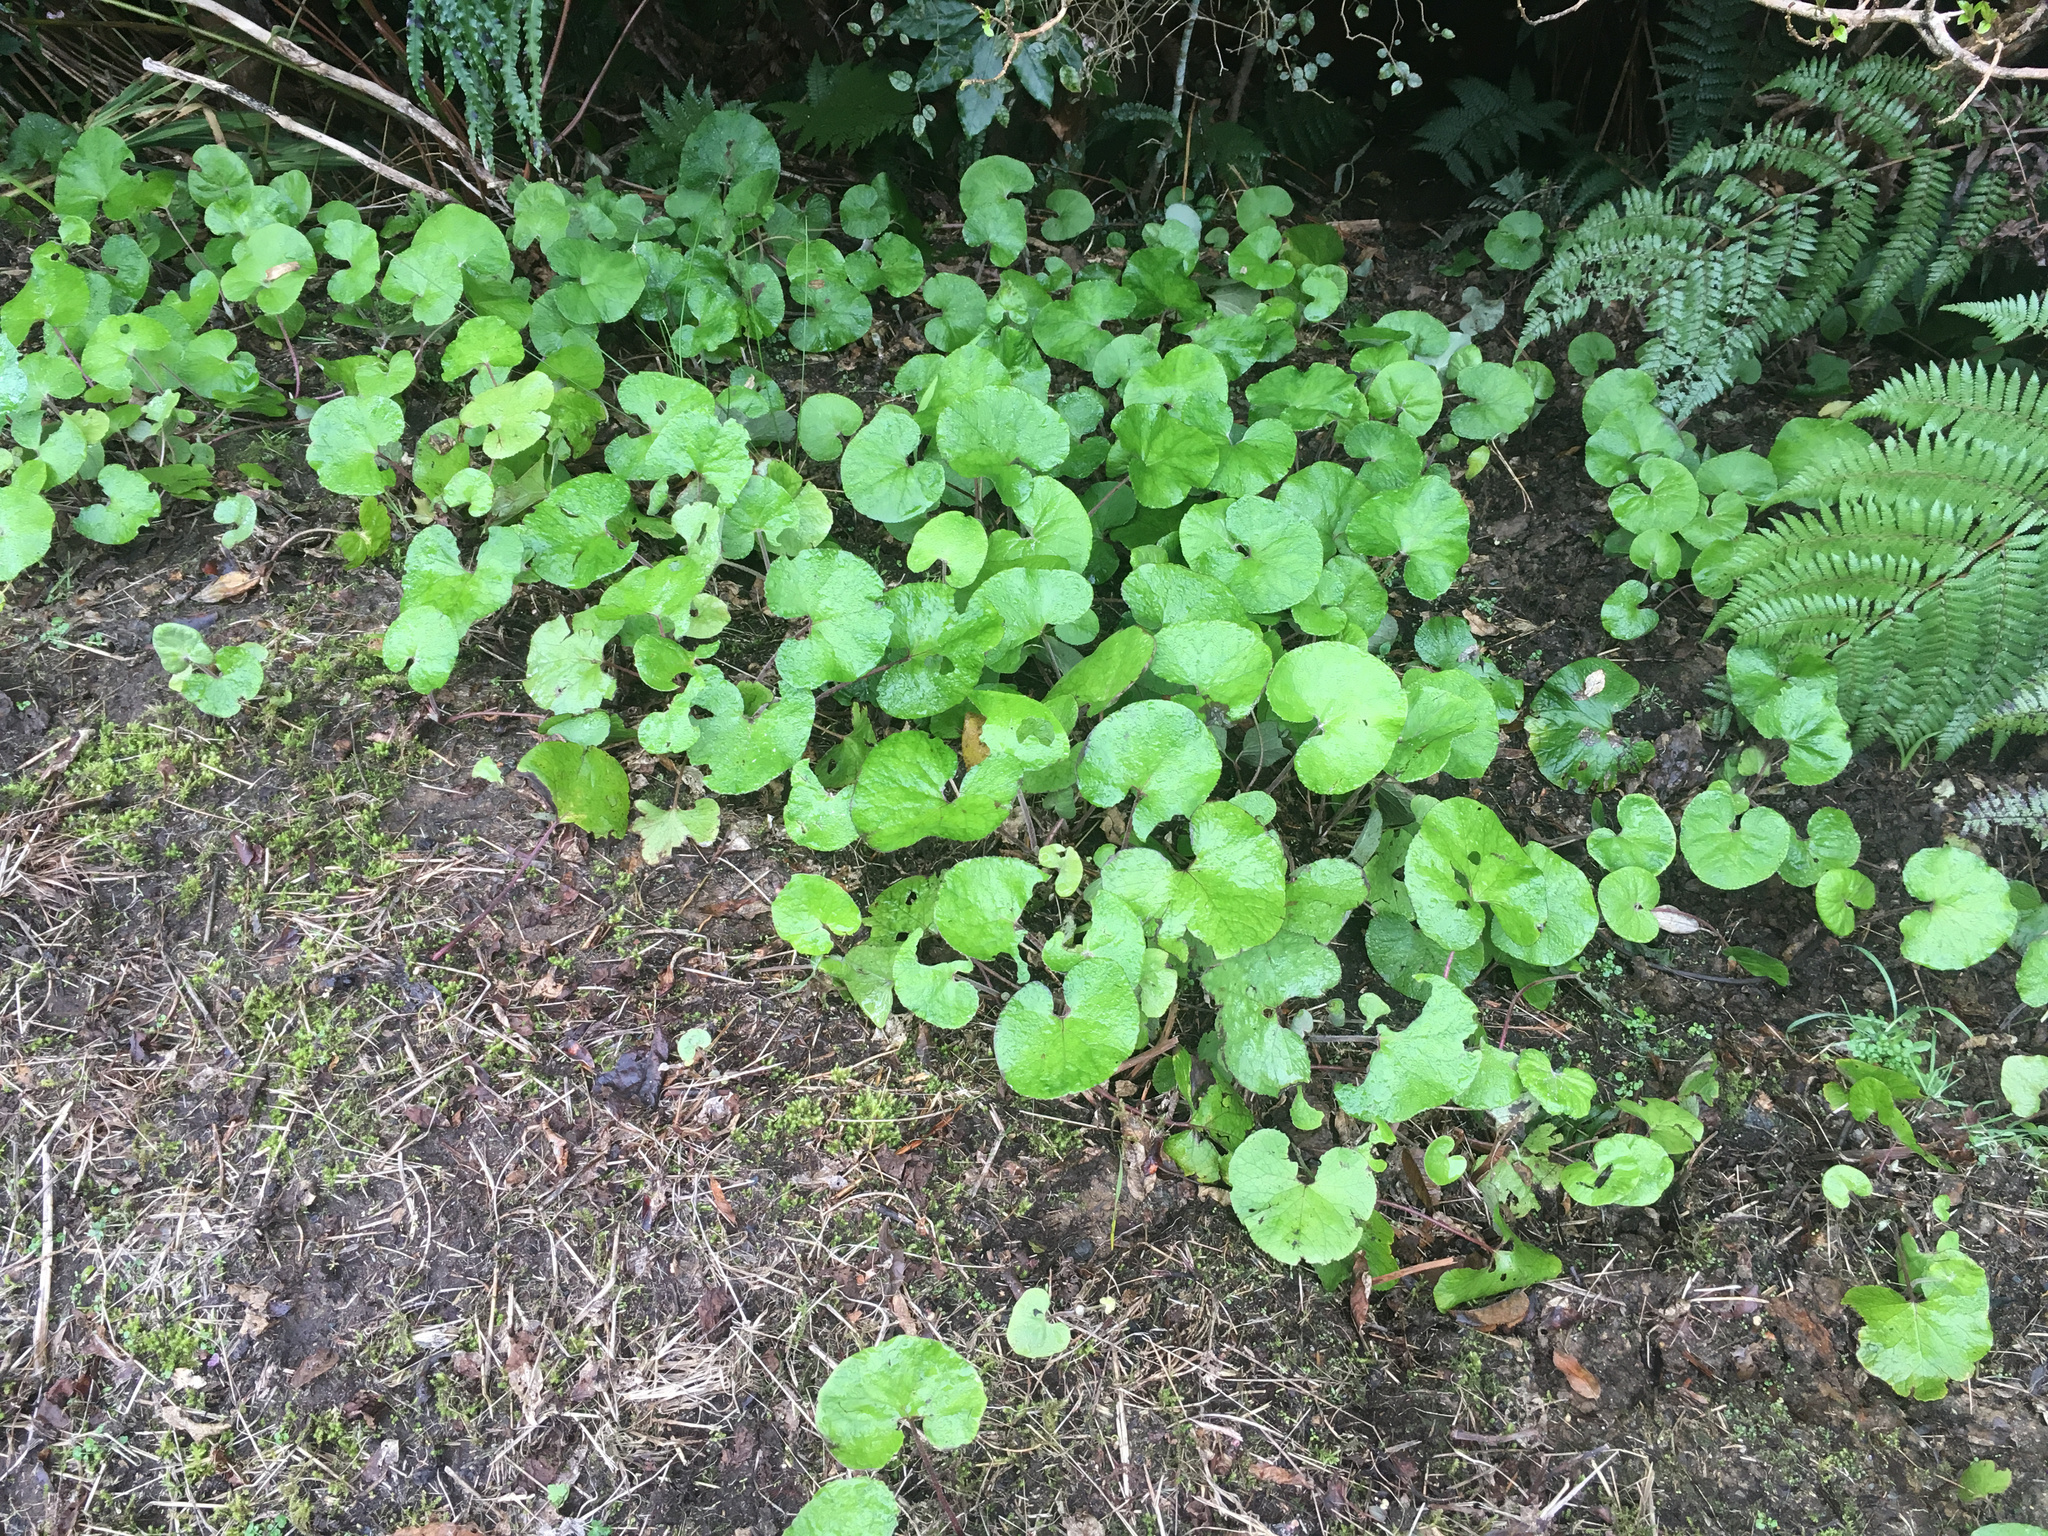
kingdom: Plantae
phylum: Tracheophyta
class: Magnoliopsida
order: Asterales
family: Asteraceae
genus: Petasites
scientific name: Petasites pyrenaicus
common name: Winter heliotrope
